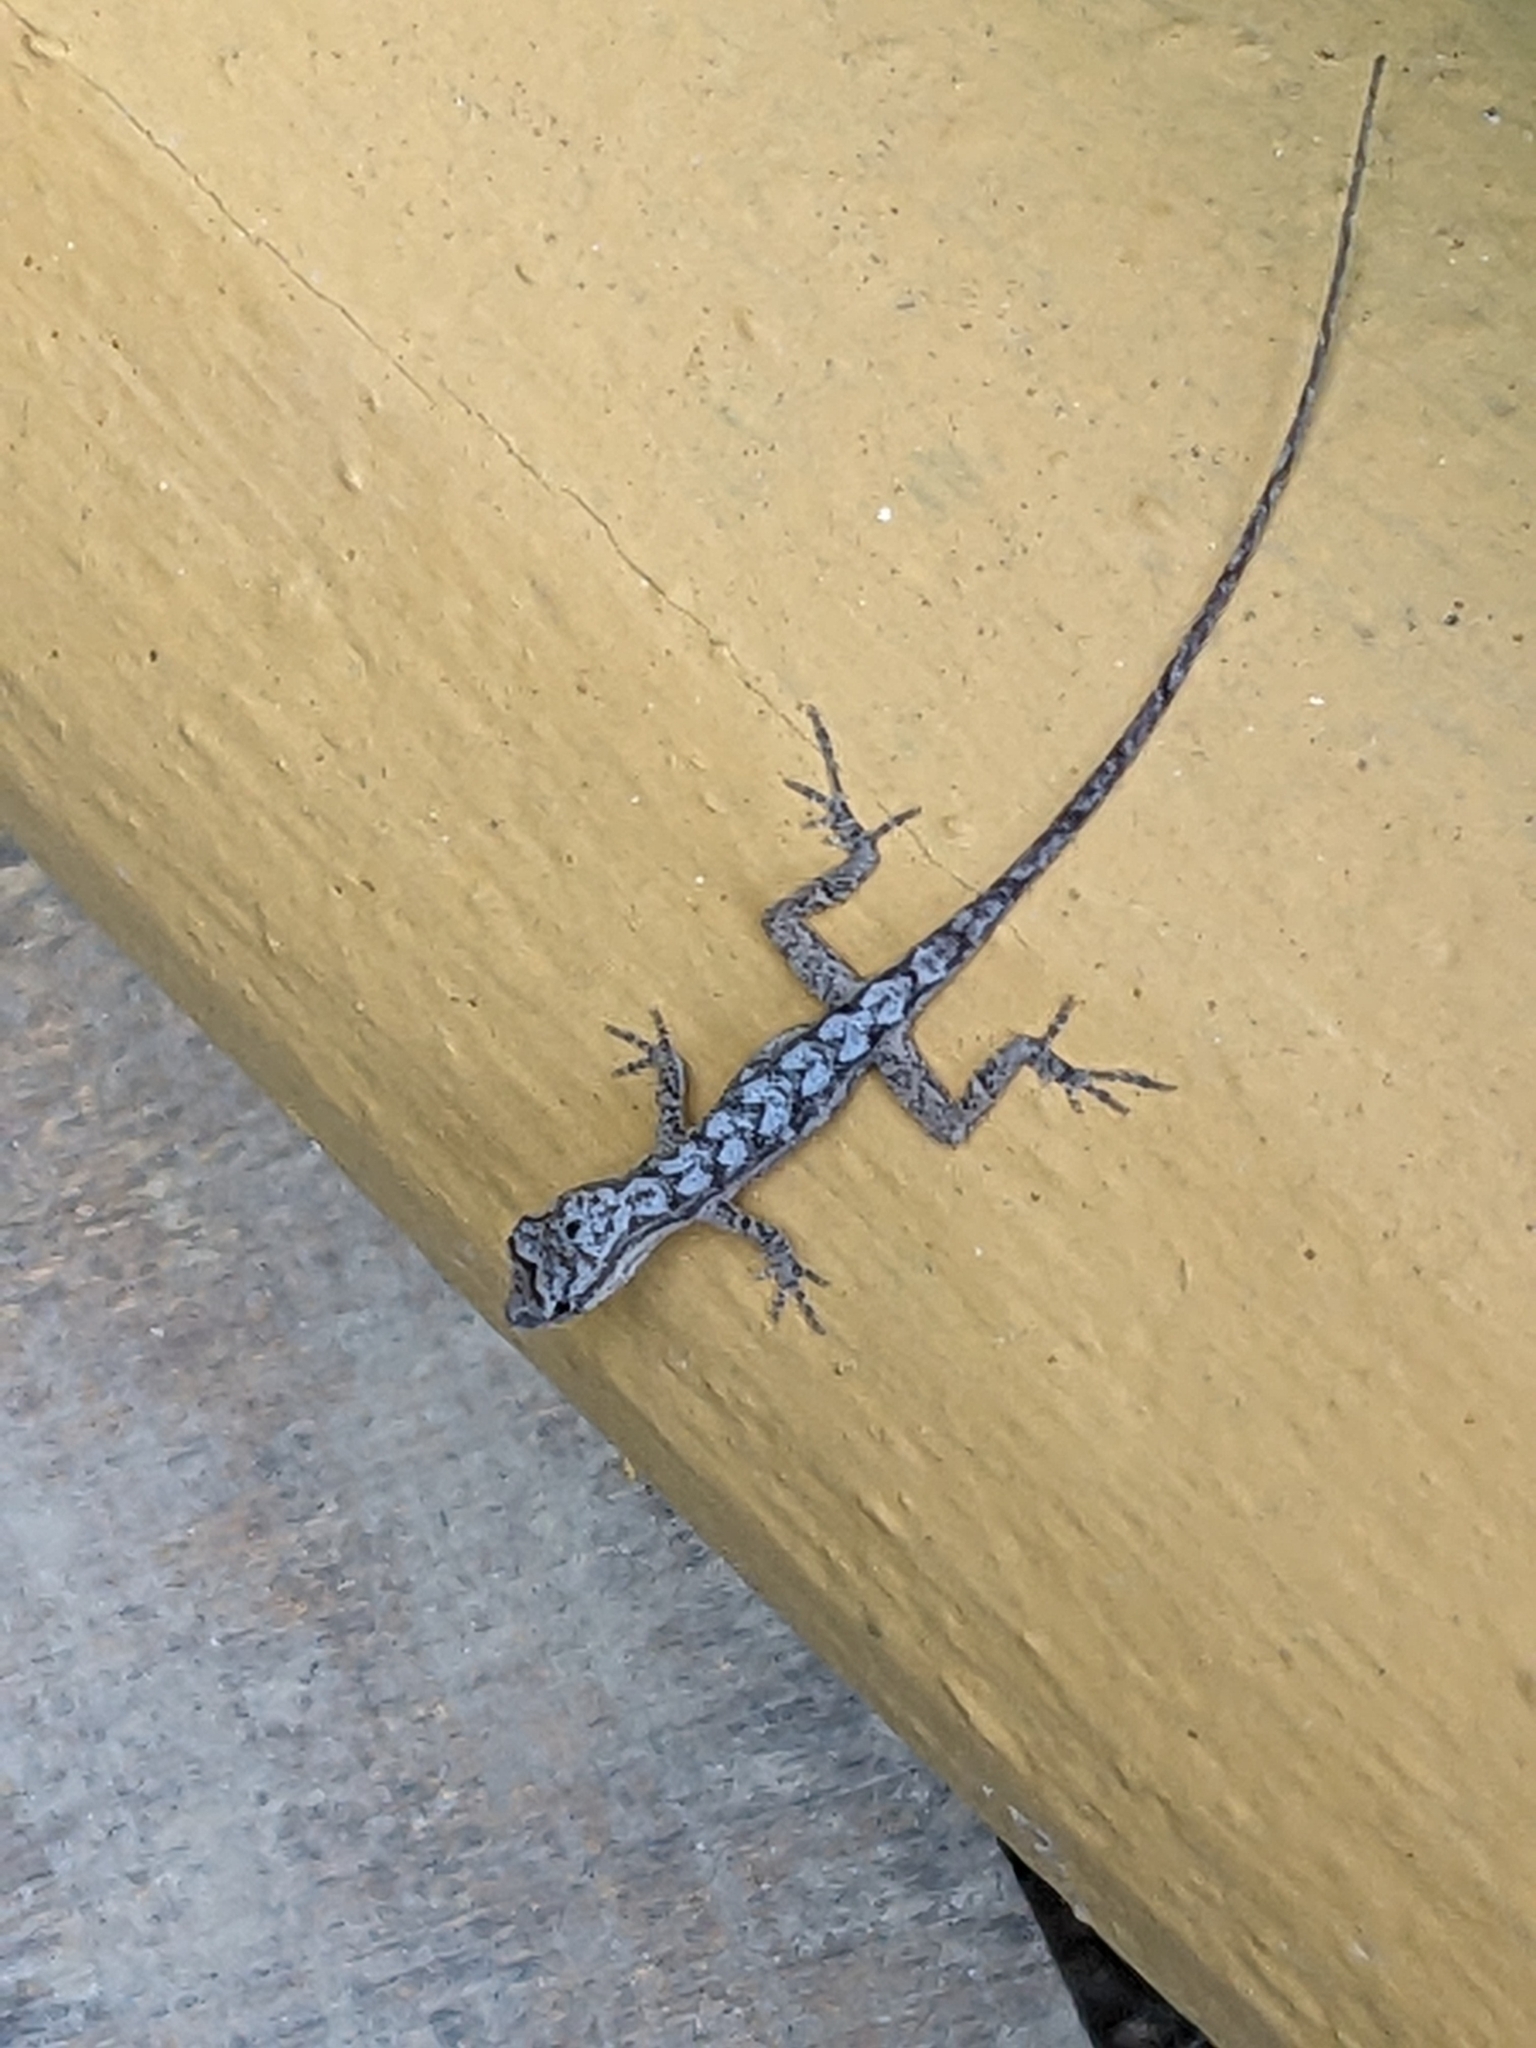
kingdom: Animalia
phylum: Chordata
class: Squamata
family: Dactyloidae
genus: Anolis
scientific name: Anolis nebulosus
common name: Clouded anole
